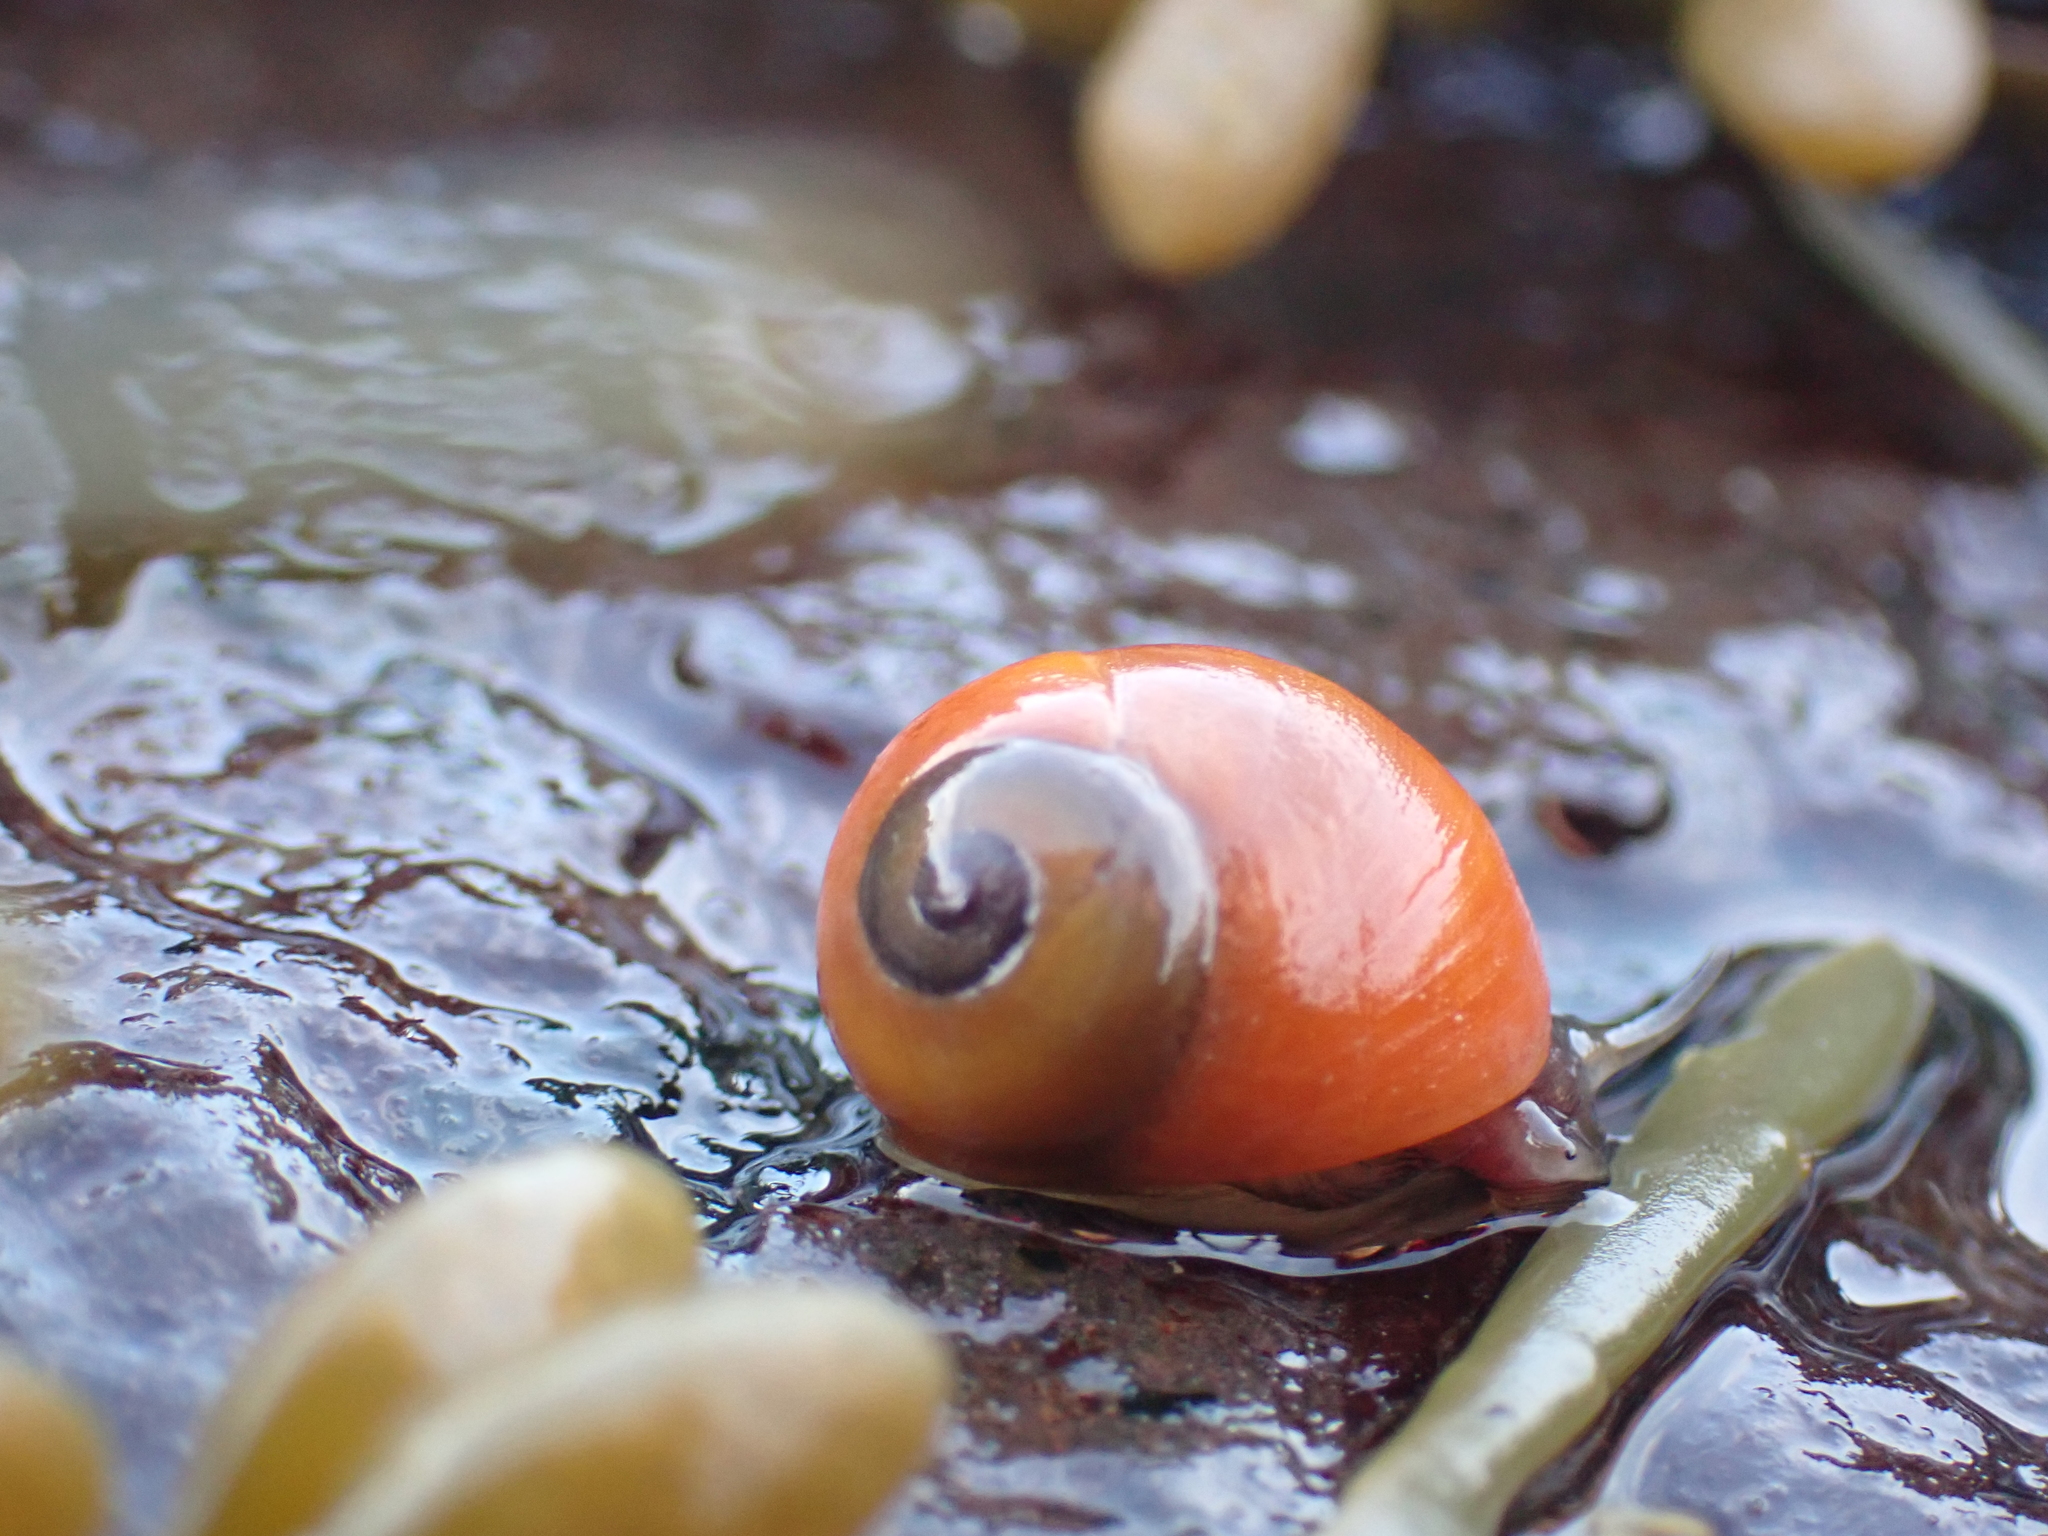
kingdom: Animalia
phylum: Mollusca
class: Gastropoda
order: Littorinimorpha
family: Littorinidae
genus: Littorina
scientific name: Littorina obtusata
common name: Flat periwinkle
